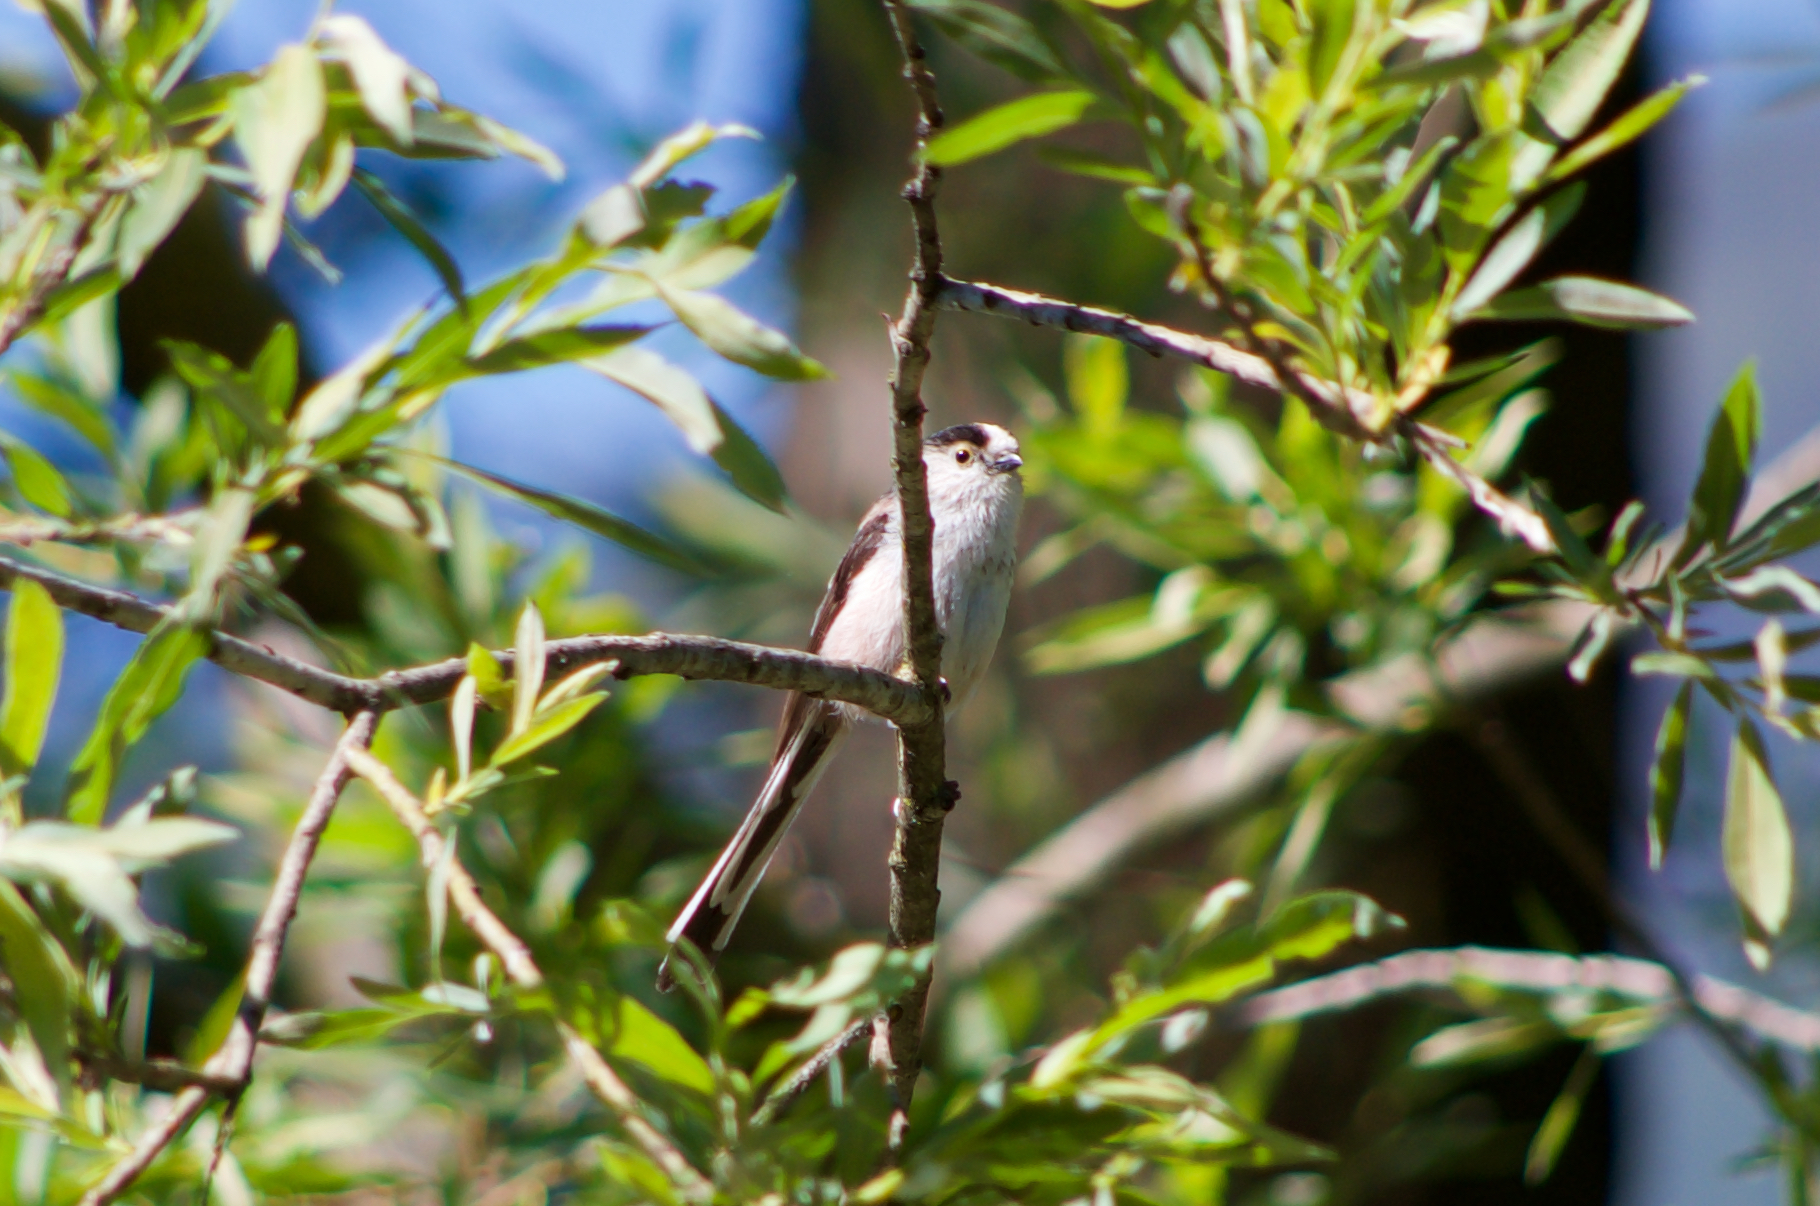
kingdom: Animalia
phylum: Chordata
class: Aves
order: Passeriformes
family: Aegithalidae
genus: Aegithalos
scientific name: Aegithalos caudatus
